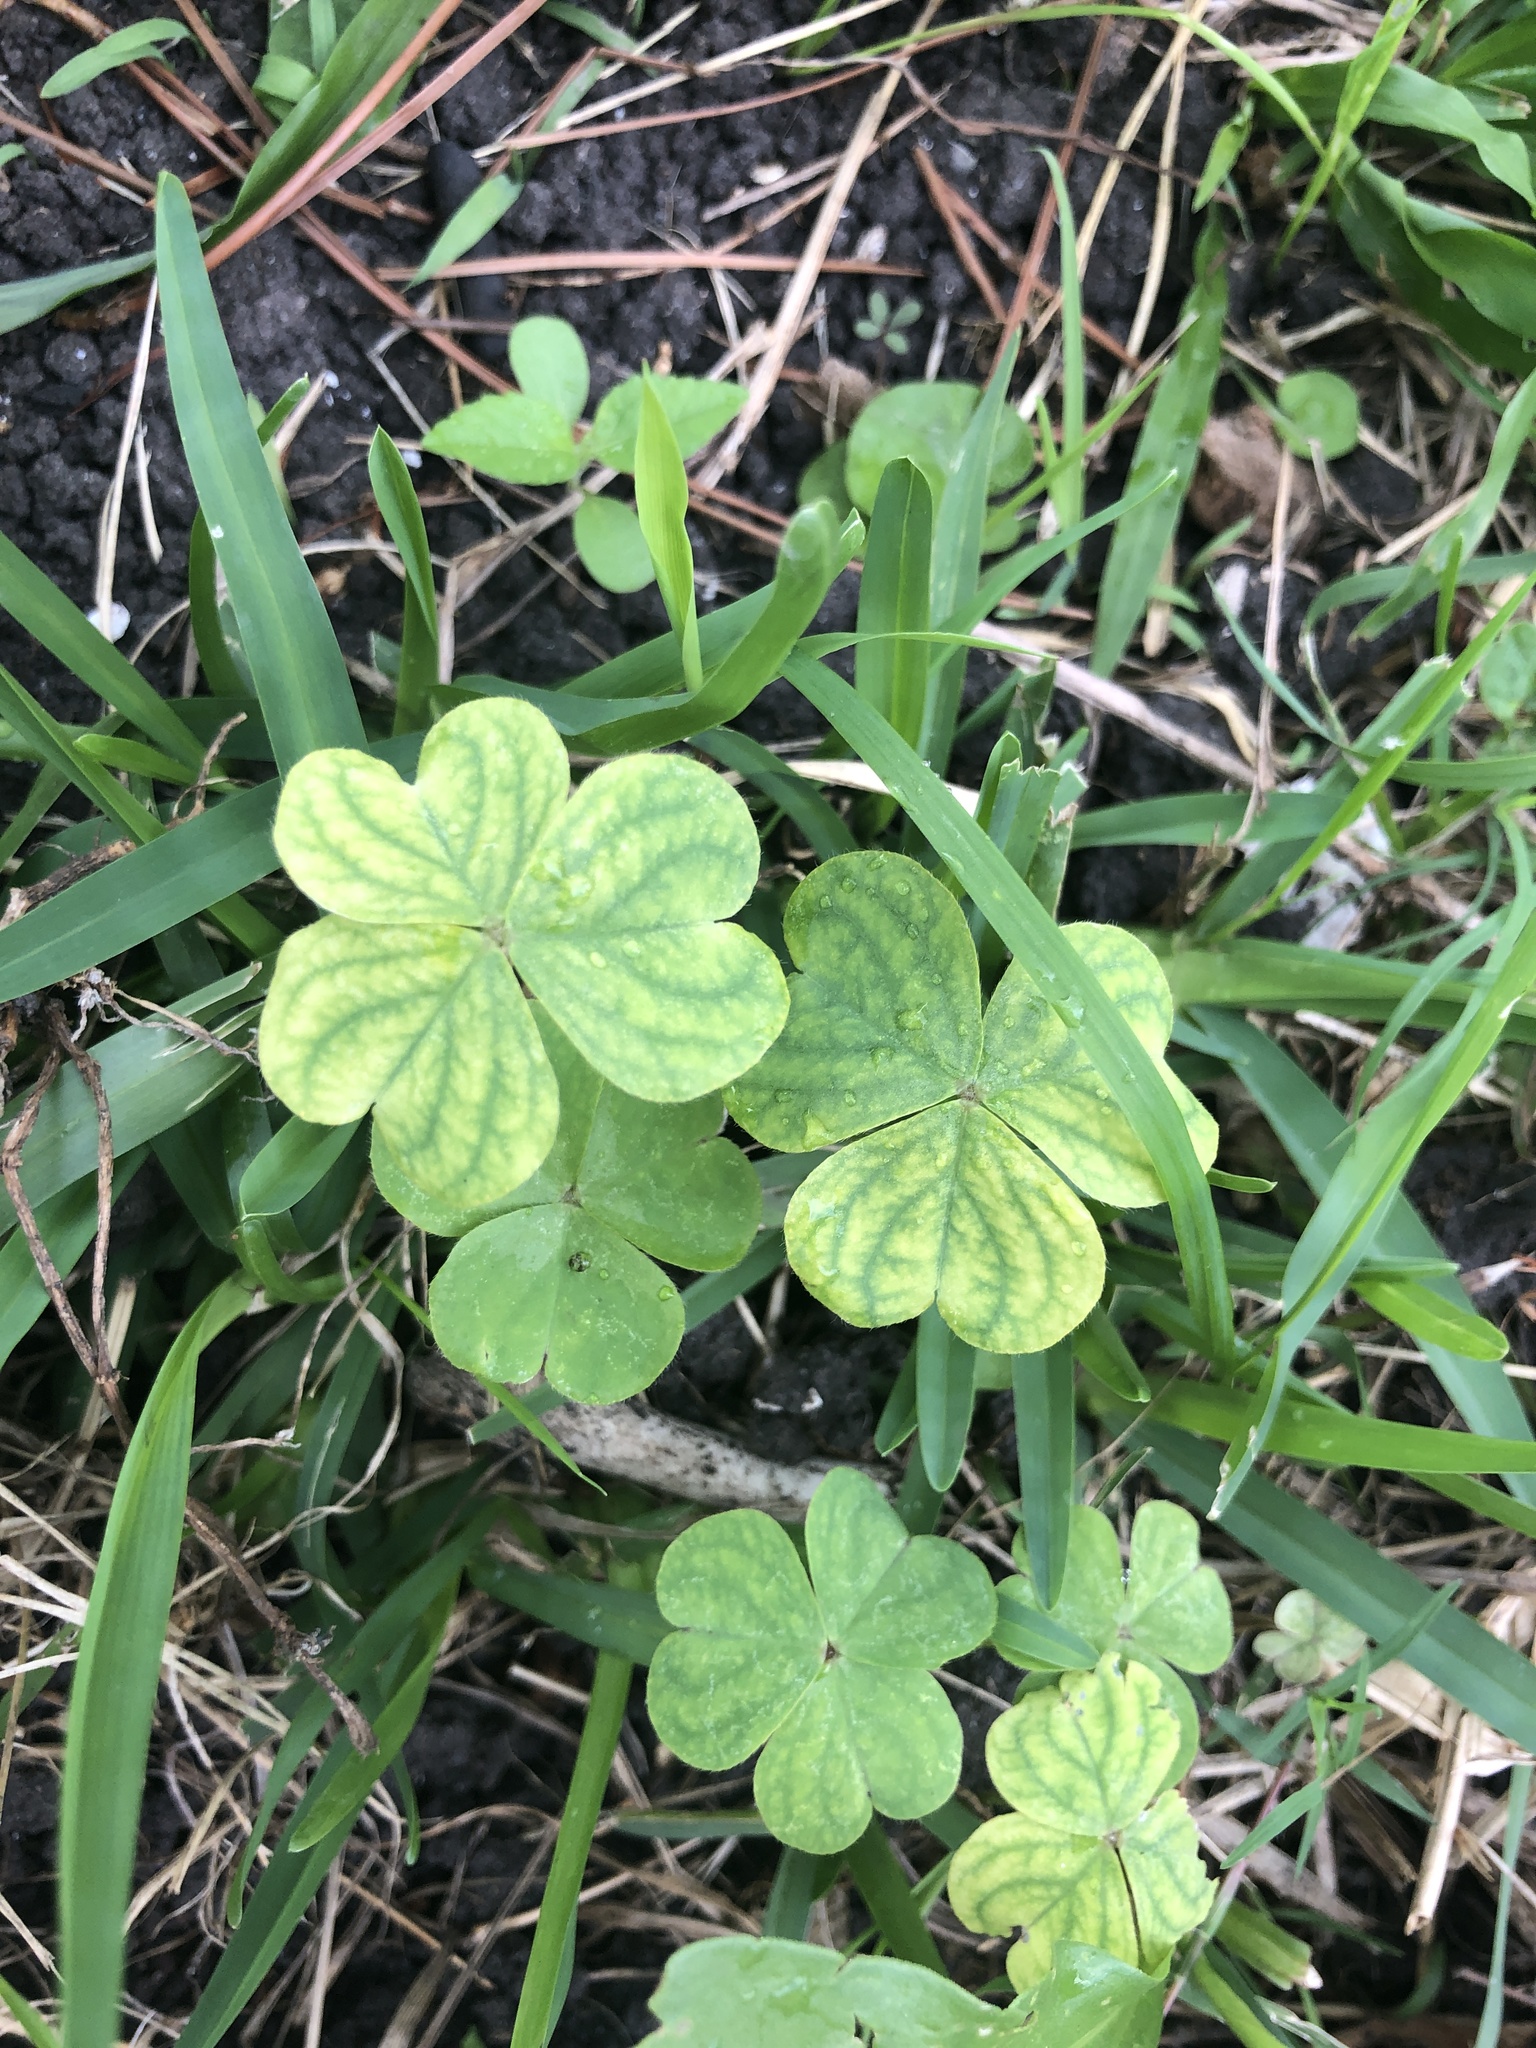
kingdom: Plantae
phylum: Tracheophyta
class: Magnoliopsida
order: Oxalidales
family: Oxalidaceae
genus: Oxalis
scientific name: Oxalis debilis
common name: Large-flowered pink-sorrel
